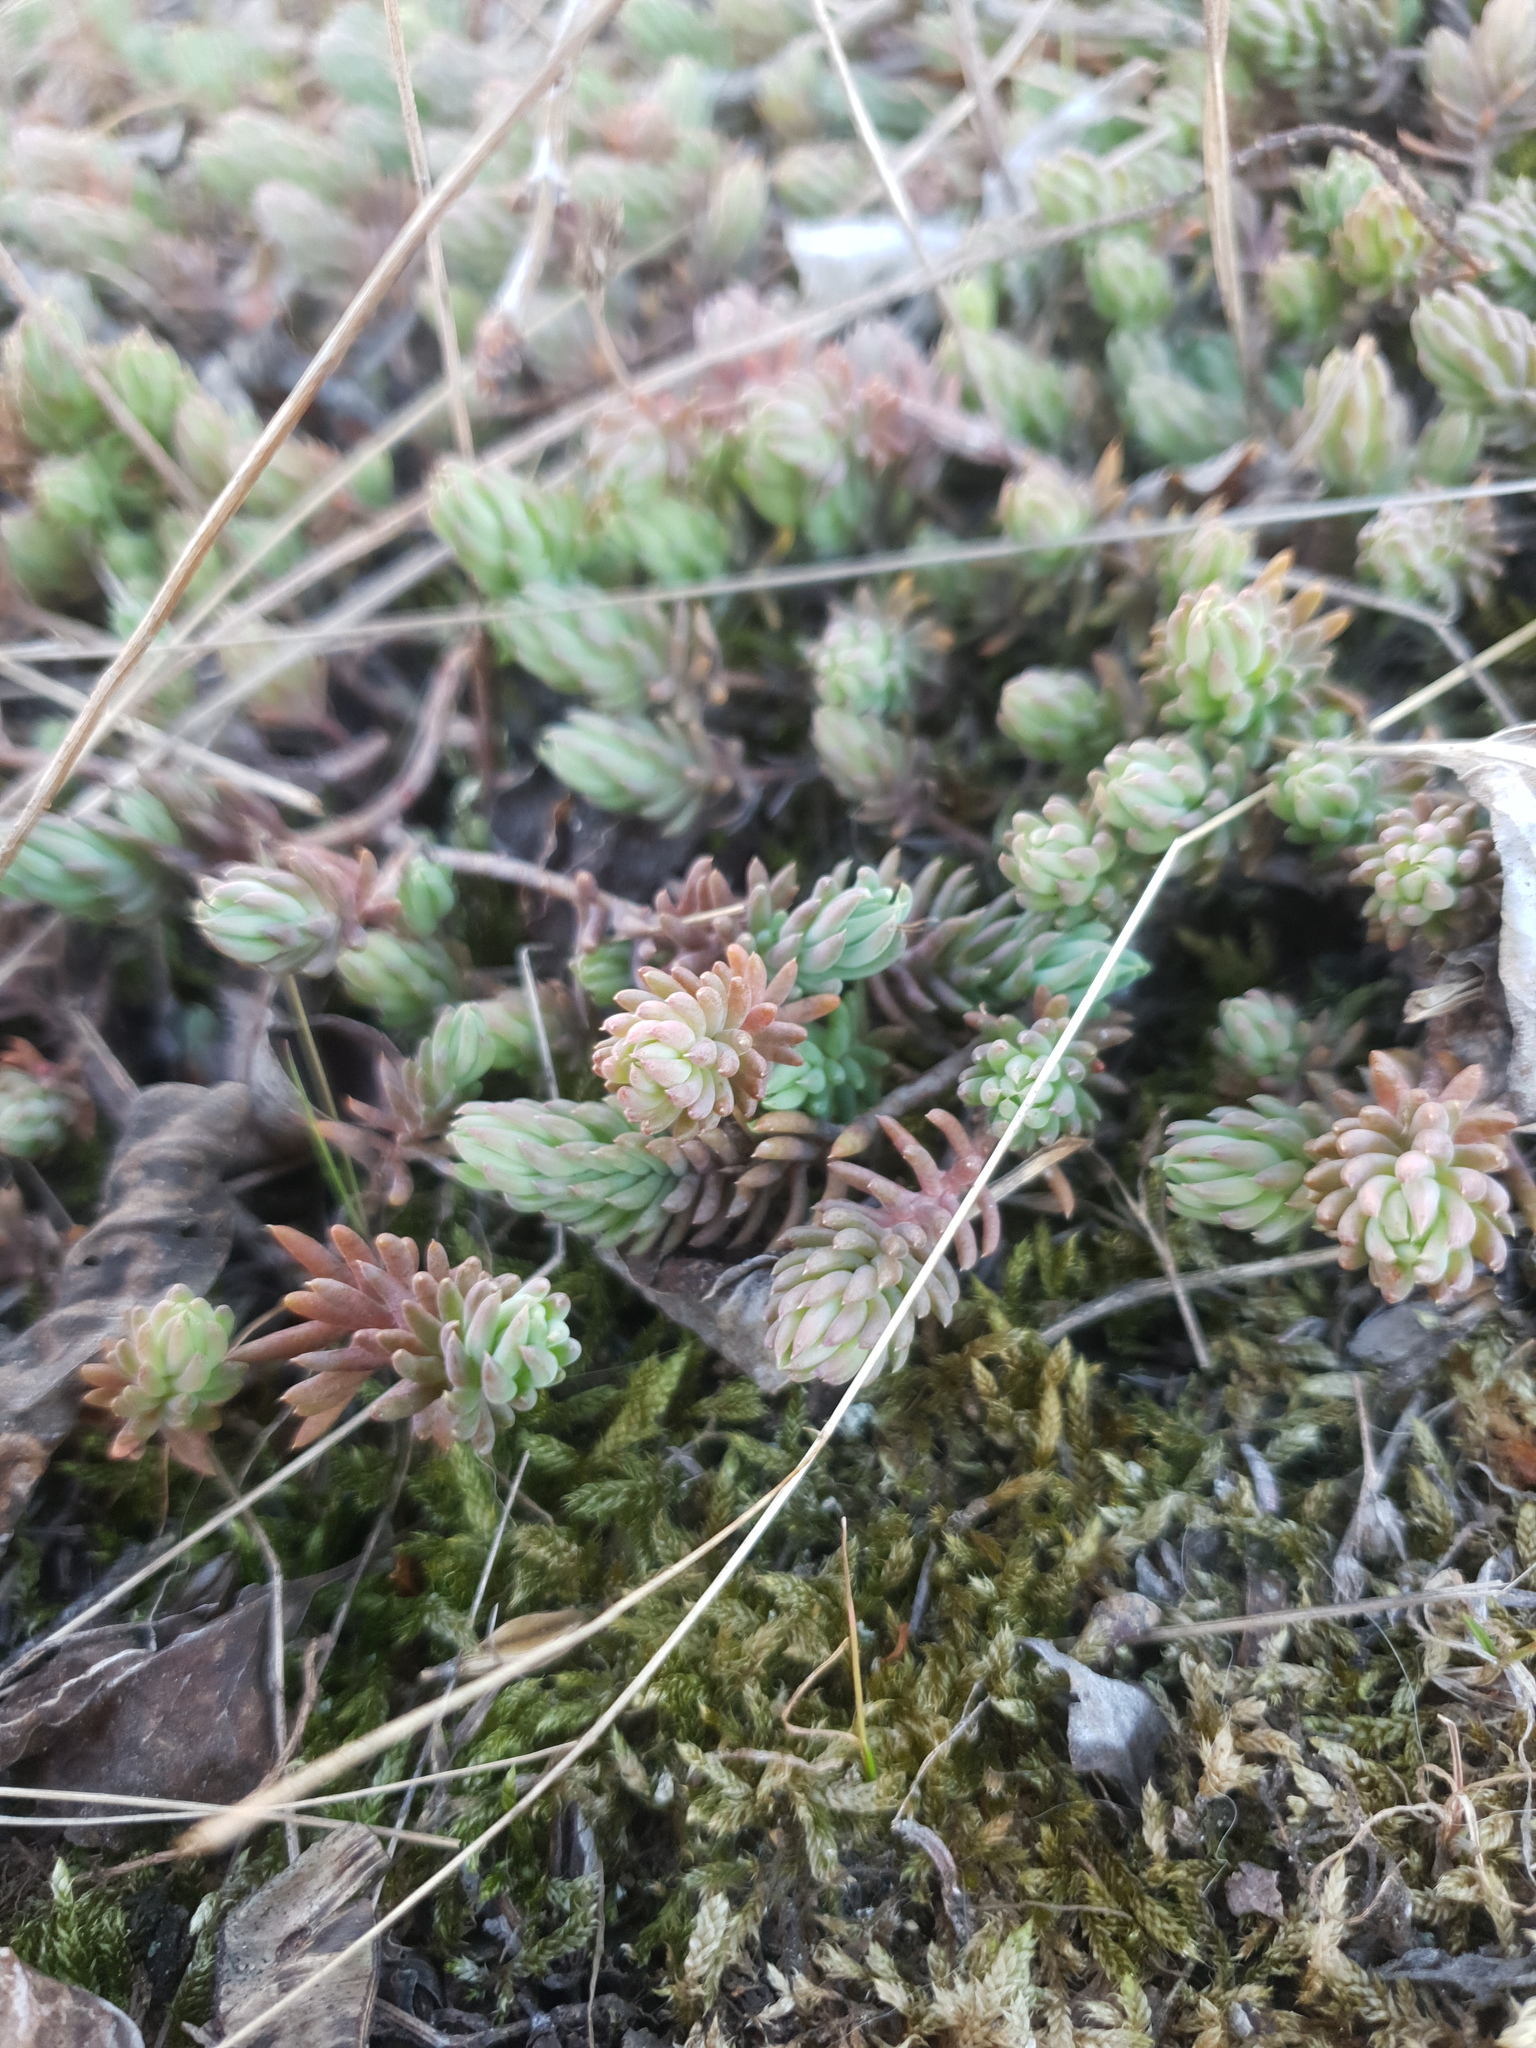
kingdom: Plantae
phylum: Tracheophyta
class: Magnoliopsida
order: Saxifragales
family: Crassulaceae
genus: Petrosedum
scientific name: Petrosedum rupestre
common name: Jenny's stonecrop
